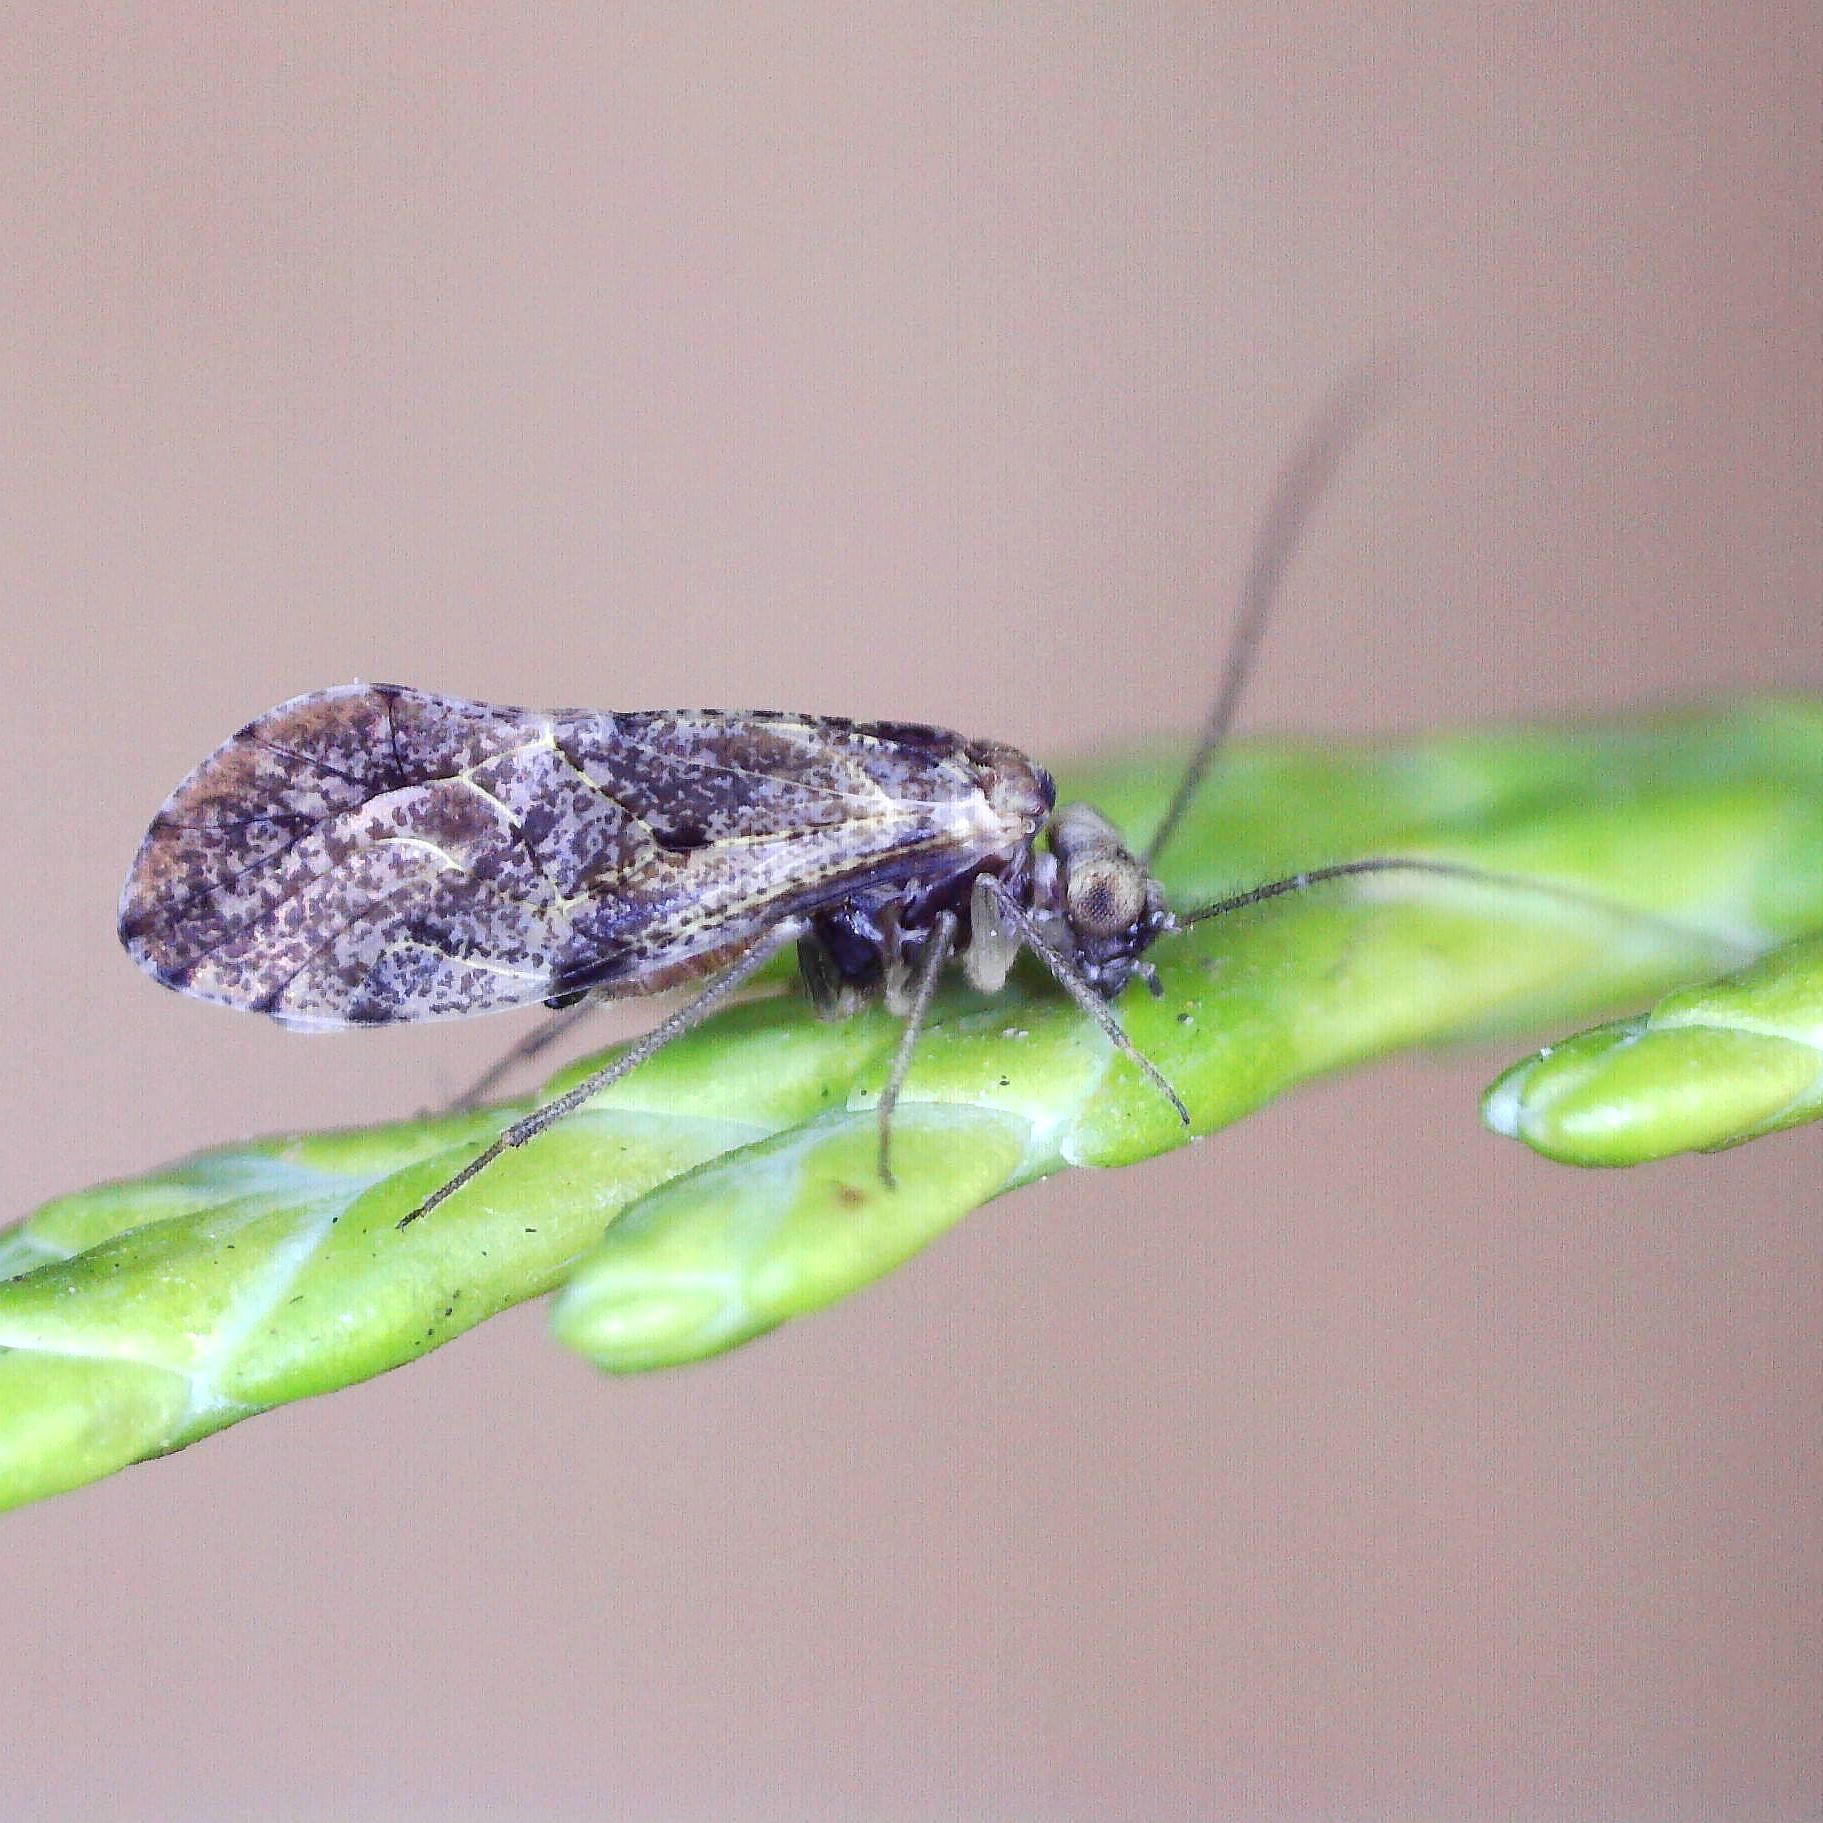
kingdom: Animalia
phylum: Arthropoda
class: Insecta
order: Psocodea
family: Psocidae
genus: Loensia
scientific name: Loensia variegata
